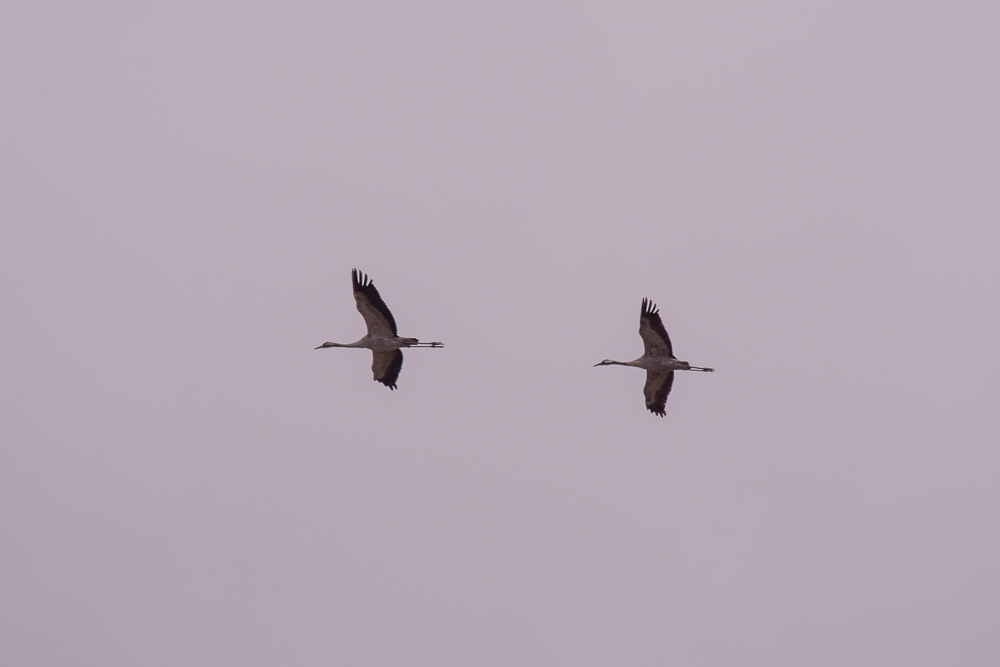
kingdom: Animalia
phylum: Chordata
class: Aves
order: Gruiformes
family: Gruidae
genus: Grus
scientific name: Grus grus
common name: Common crane
